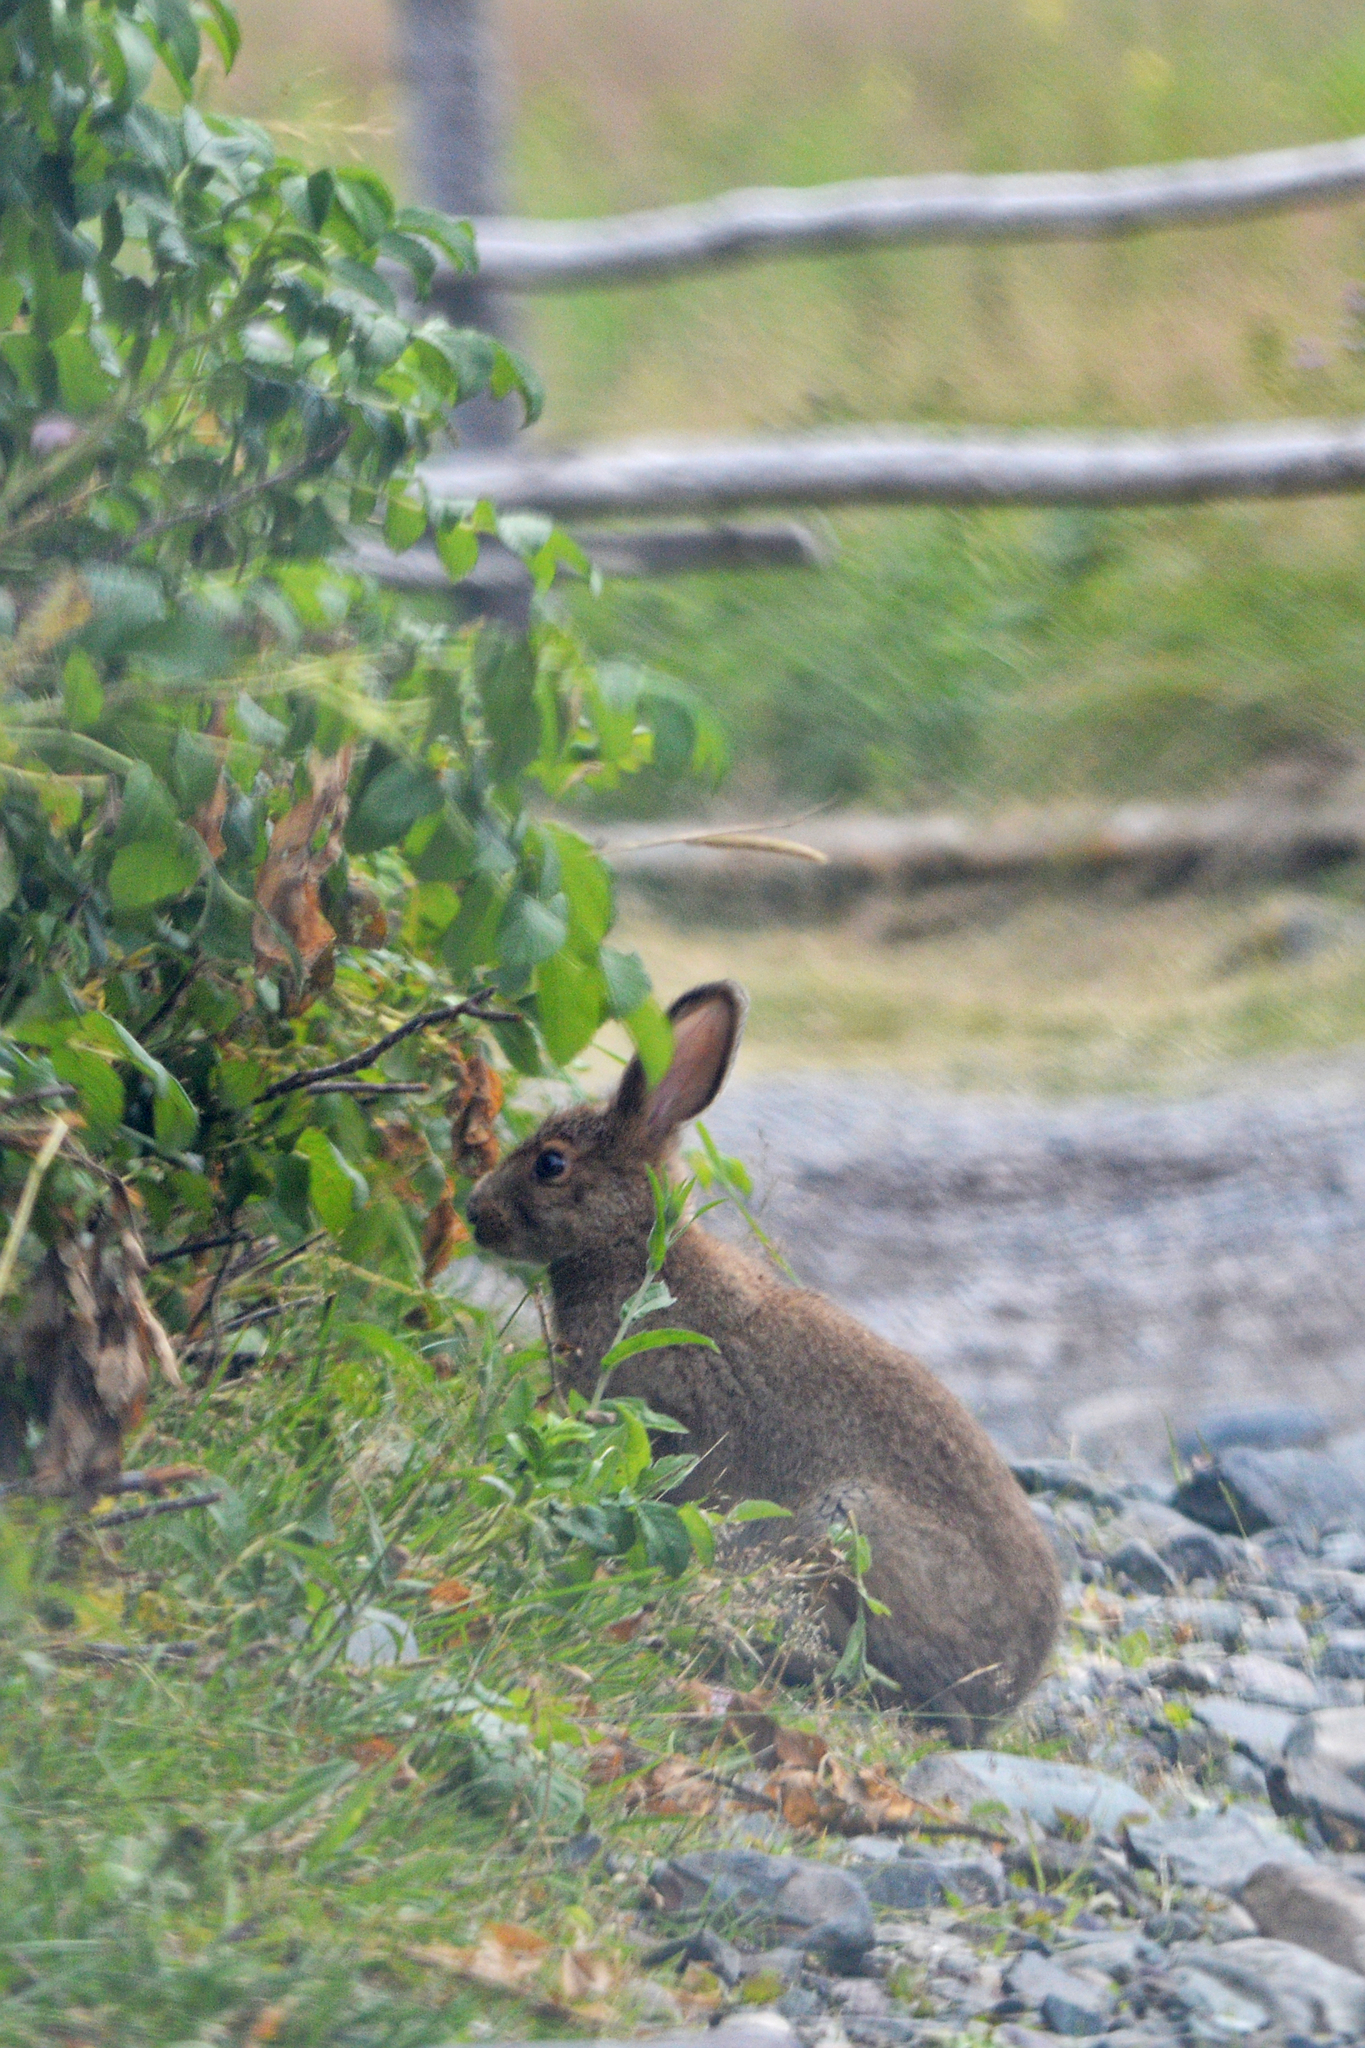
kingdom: Animalia
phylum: Chordata
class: Mammalia
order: Lagomorpha
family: Leporidae
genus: Lepus
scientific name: Lepus americanus
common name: Snowshoe hare
